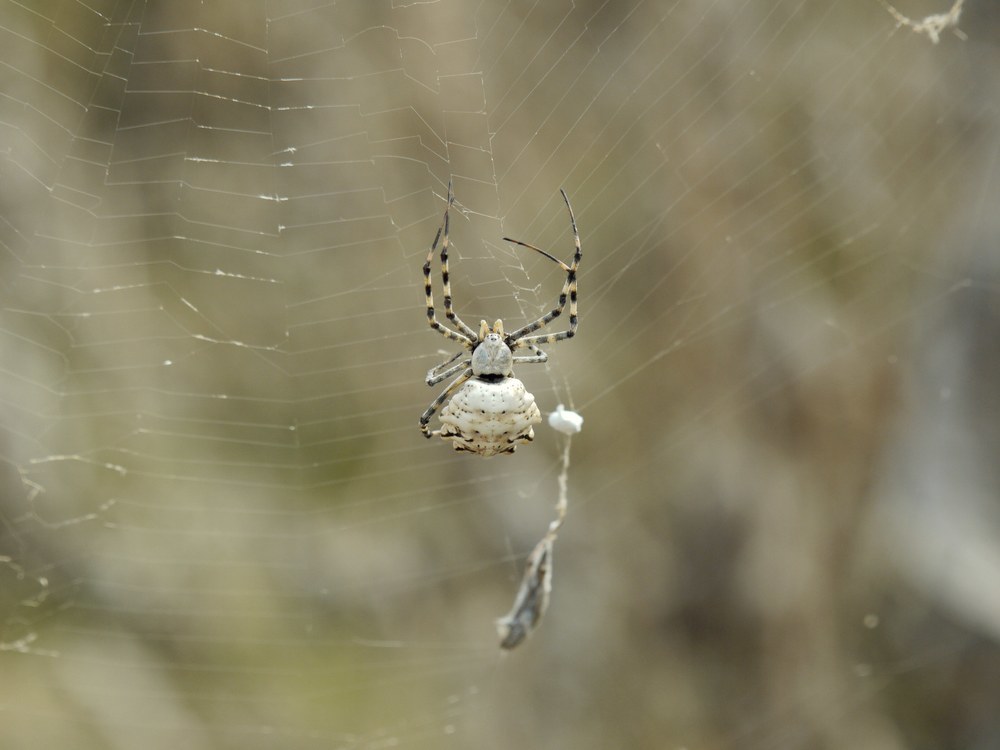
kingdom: Animalia
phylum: Arthropoda
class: Arachnida
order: Araneae
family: Araneidae
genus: Argiope
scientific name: Argiope lobata
